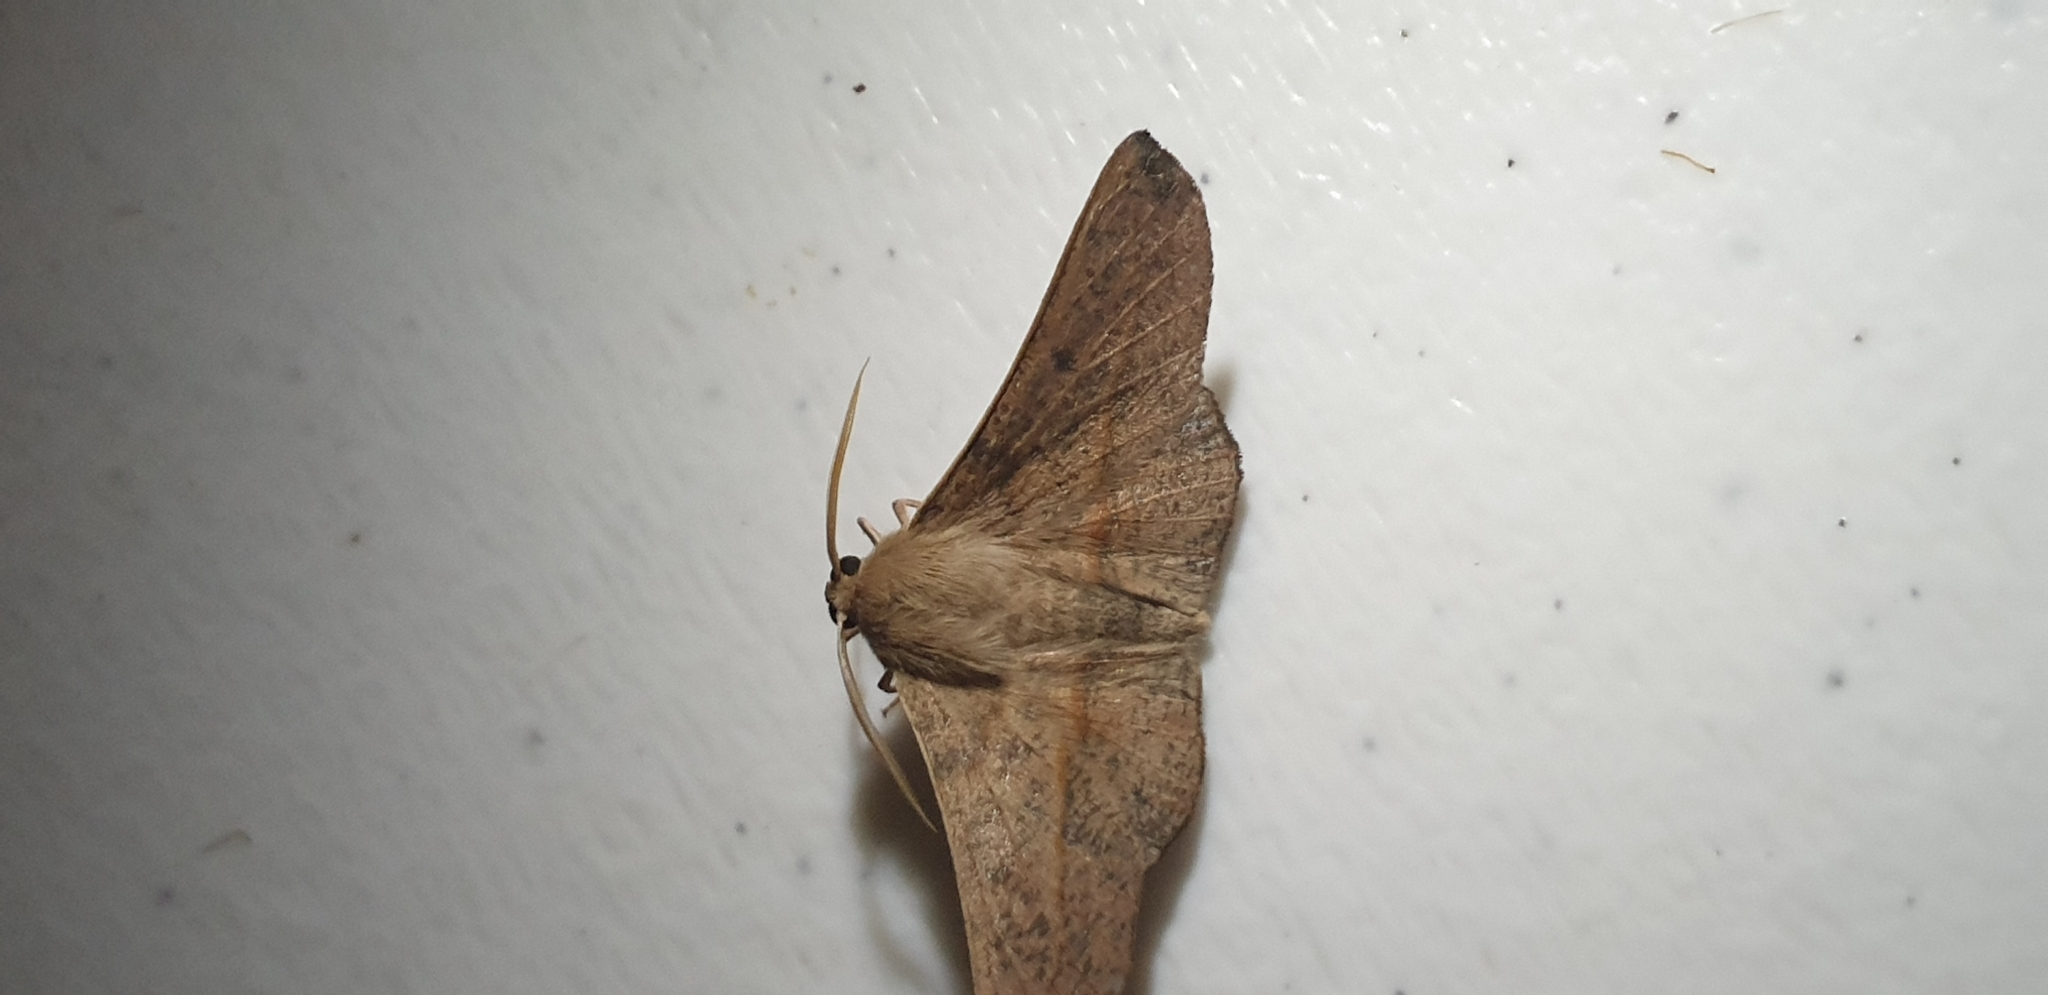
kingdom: Animalia
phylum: Arthropoda
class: Insecta
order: Lepidoptera
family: Geometridae
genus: Antictenia
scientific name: Antictenia punctunculus
